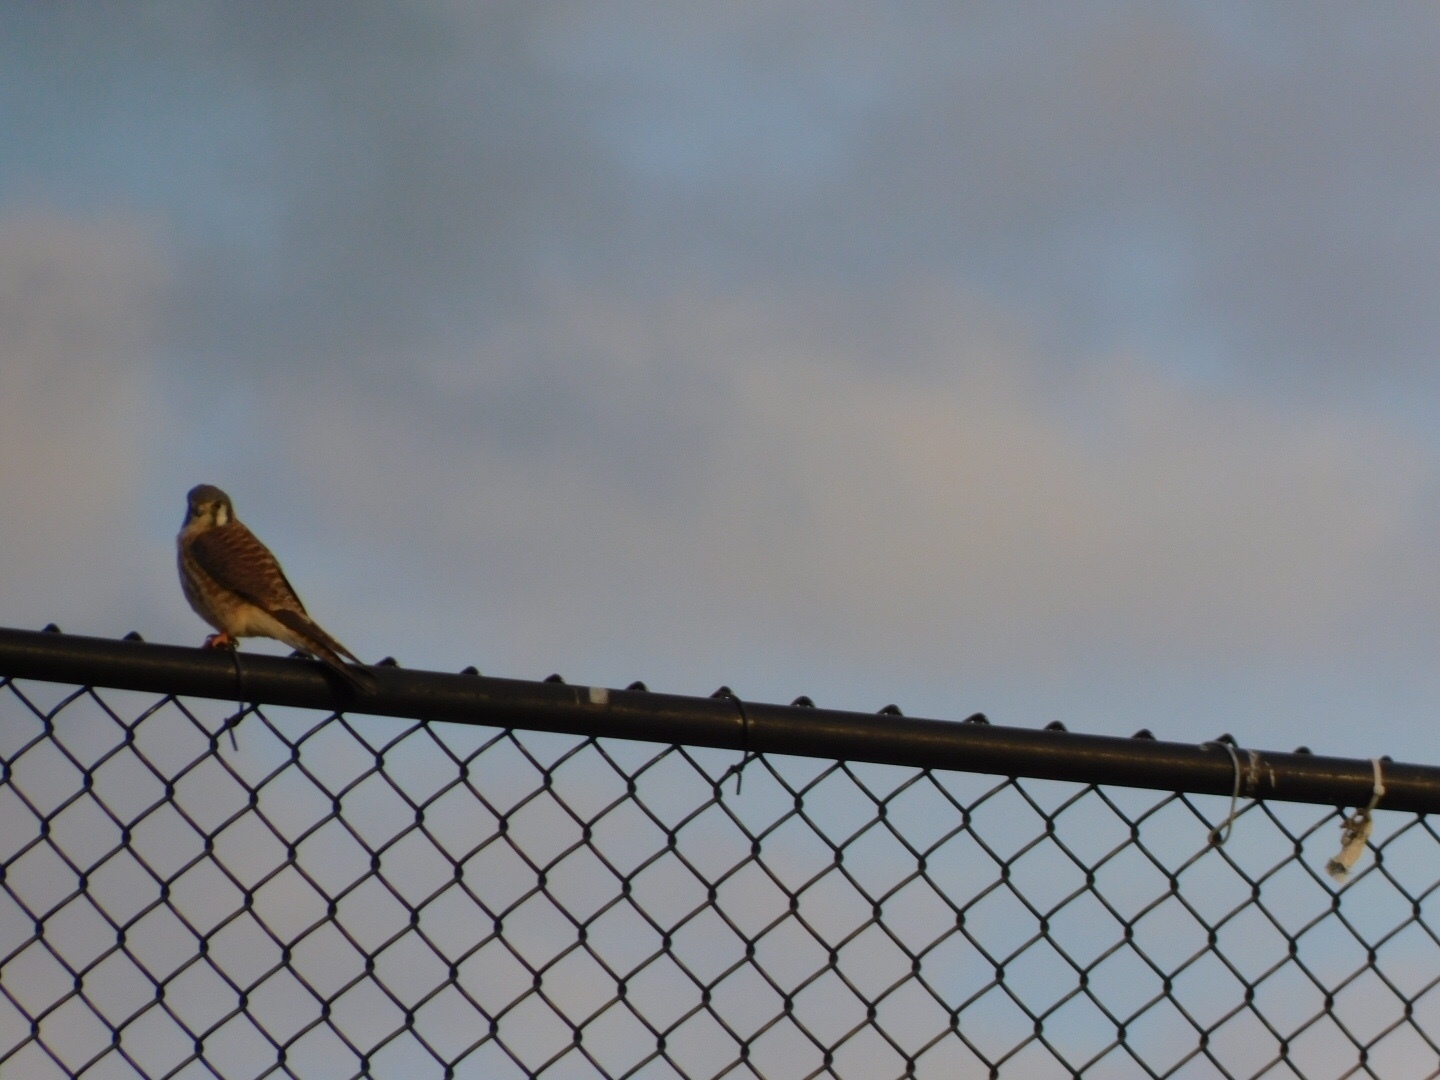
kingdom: Animalia
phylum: Chordata
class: Aves
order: Falconiformes
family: Falconidae
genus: Falco
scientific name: Falco sparverius
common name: American kestrel
